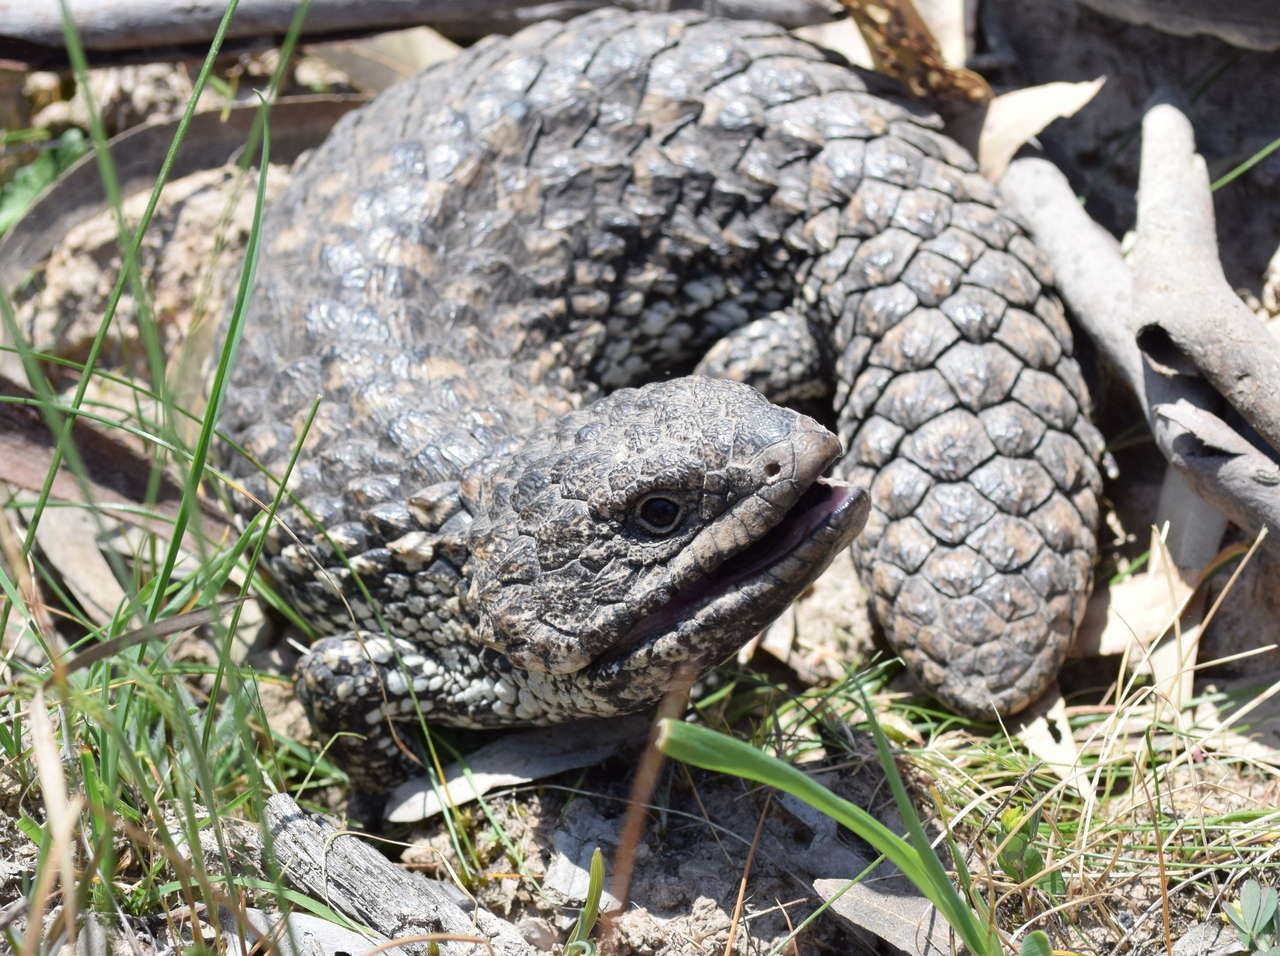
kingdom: Animalia
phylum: Chordata
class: Squamata
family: Scincidae
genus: Tiliqua
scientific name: Tiliqua rugosa
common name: Pinecone lizard
